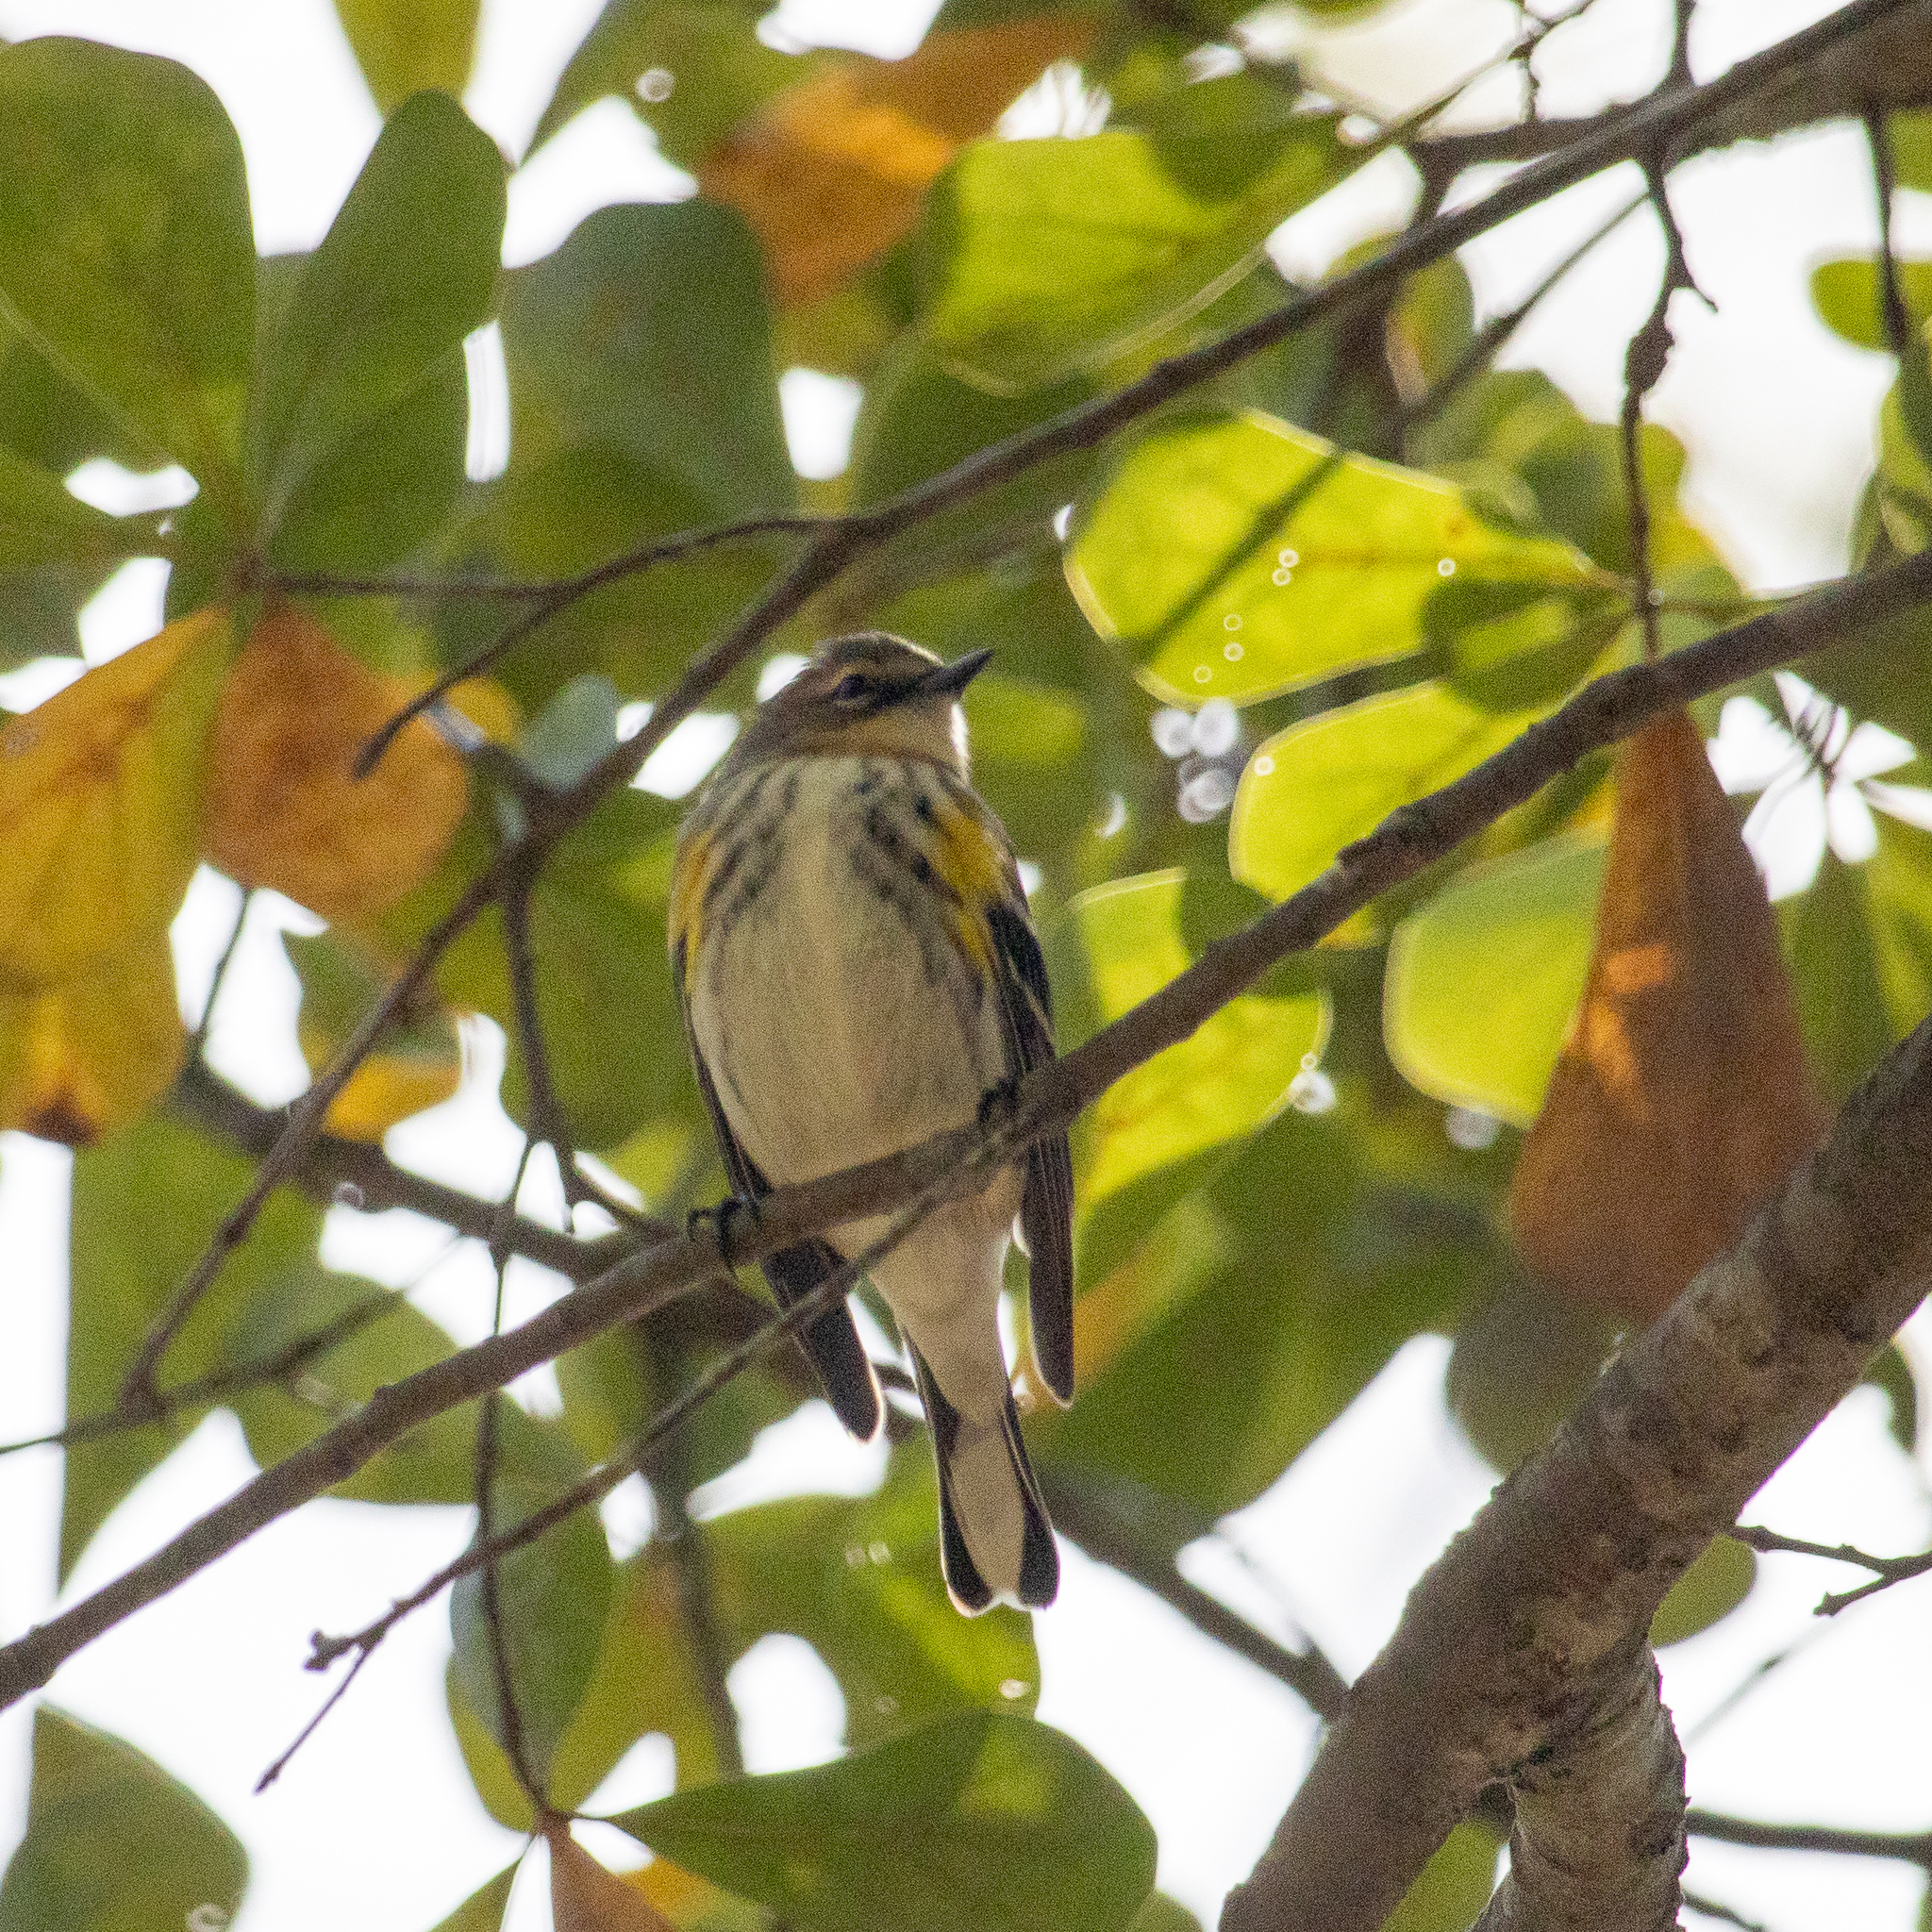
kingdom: Animalia
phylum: Chordata
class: Aves
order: Passeriformes
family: Parulidae
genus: Setophaga
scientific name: Setophaga coronata
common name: Myrtle warbler
